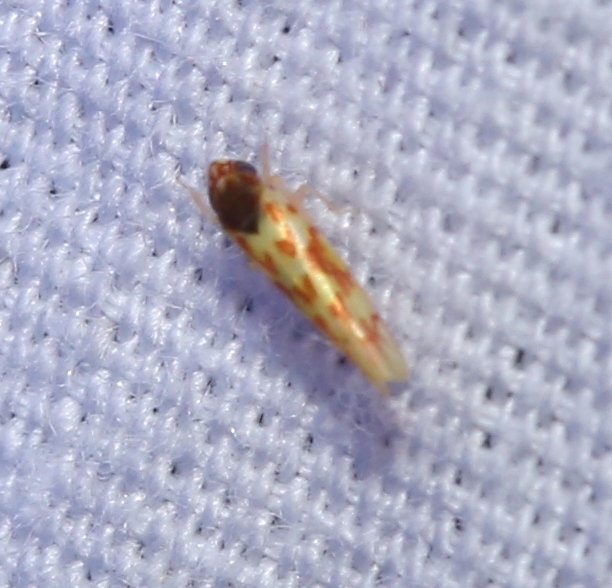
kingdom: Animalia
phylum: Arthropoda
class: Insecta
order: Hemiptera
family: Cicadellidae
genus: Eratoneura
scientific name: Eratoneura ardens
